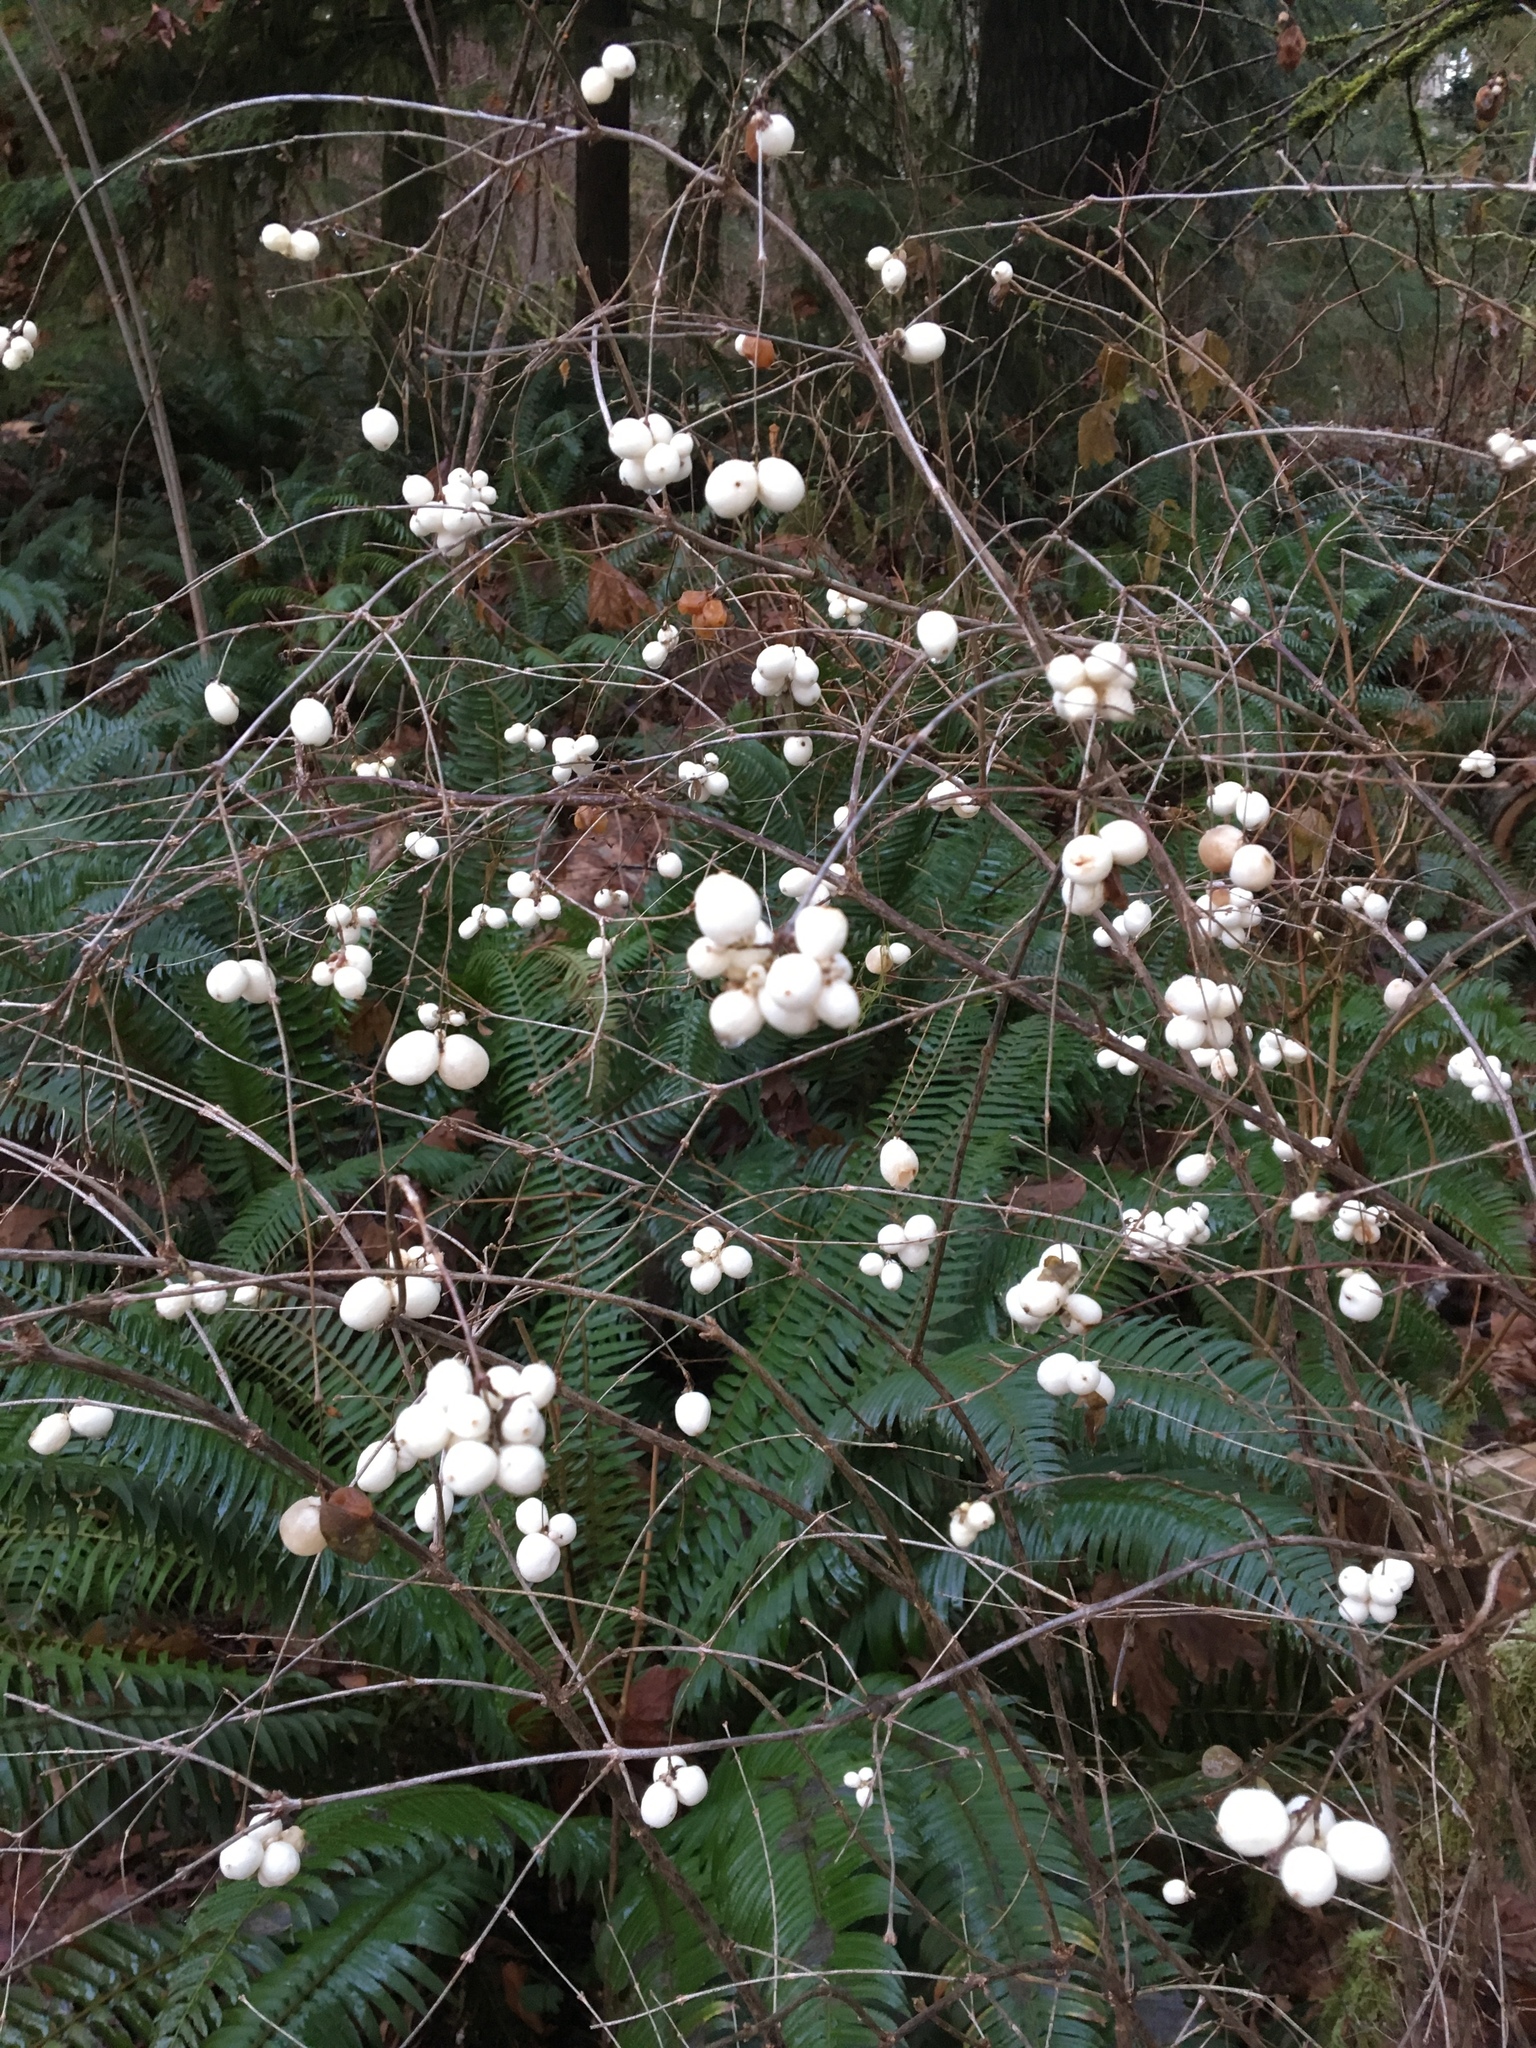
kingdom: Plantae
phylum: Tracheophyta
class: Magnoliopsida
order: Dipsacales
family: Caprifoliaceae
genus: Symphoricarpos
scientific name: Symphoricarpos albus
